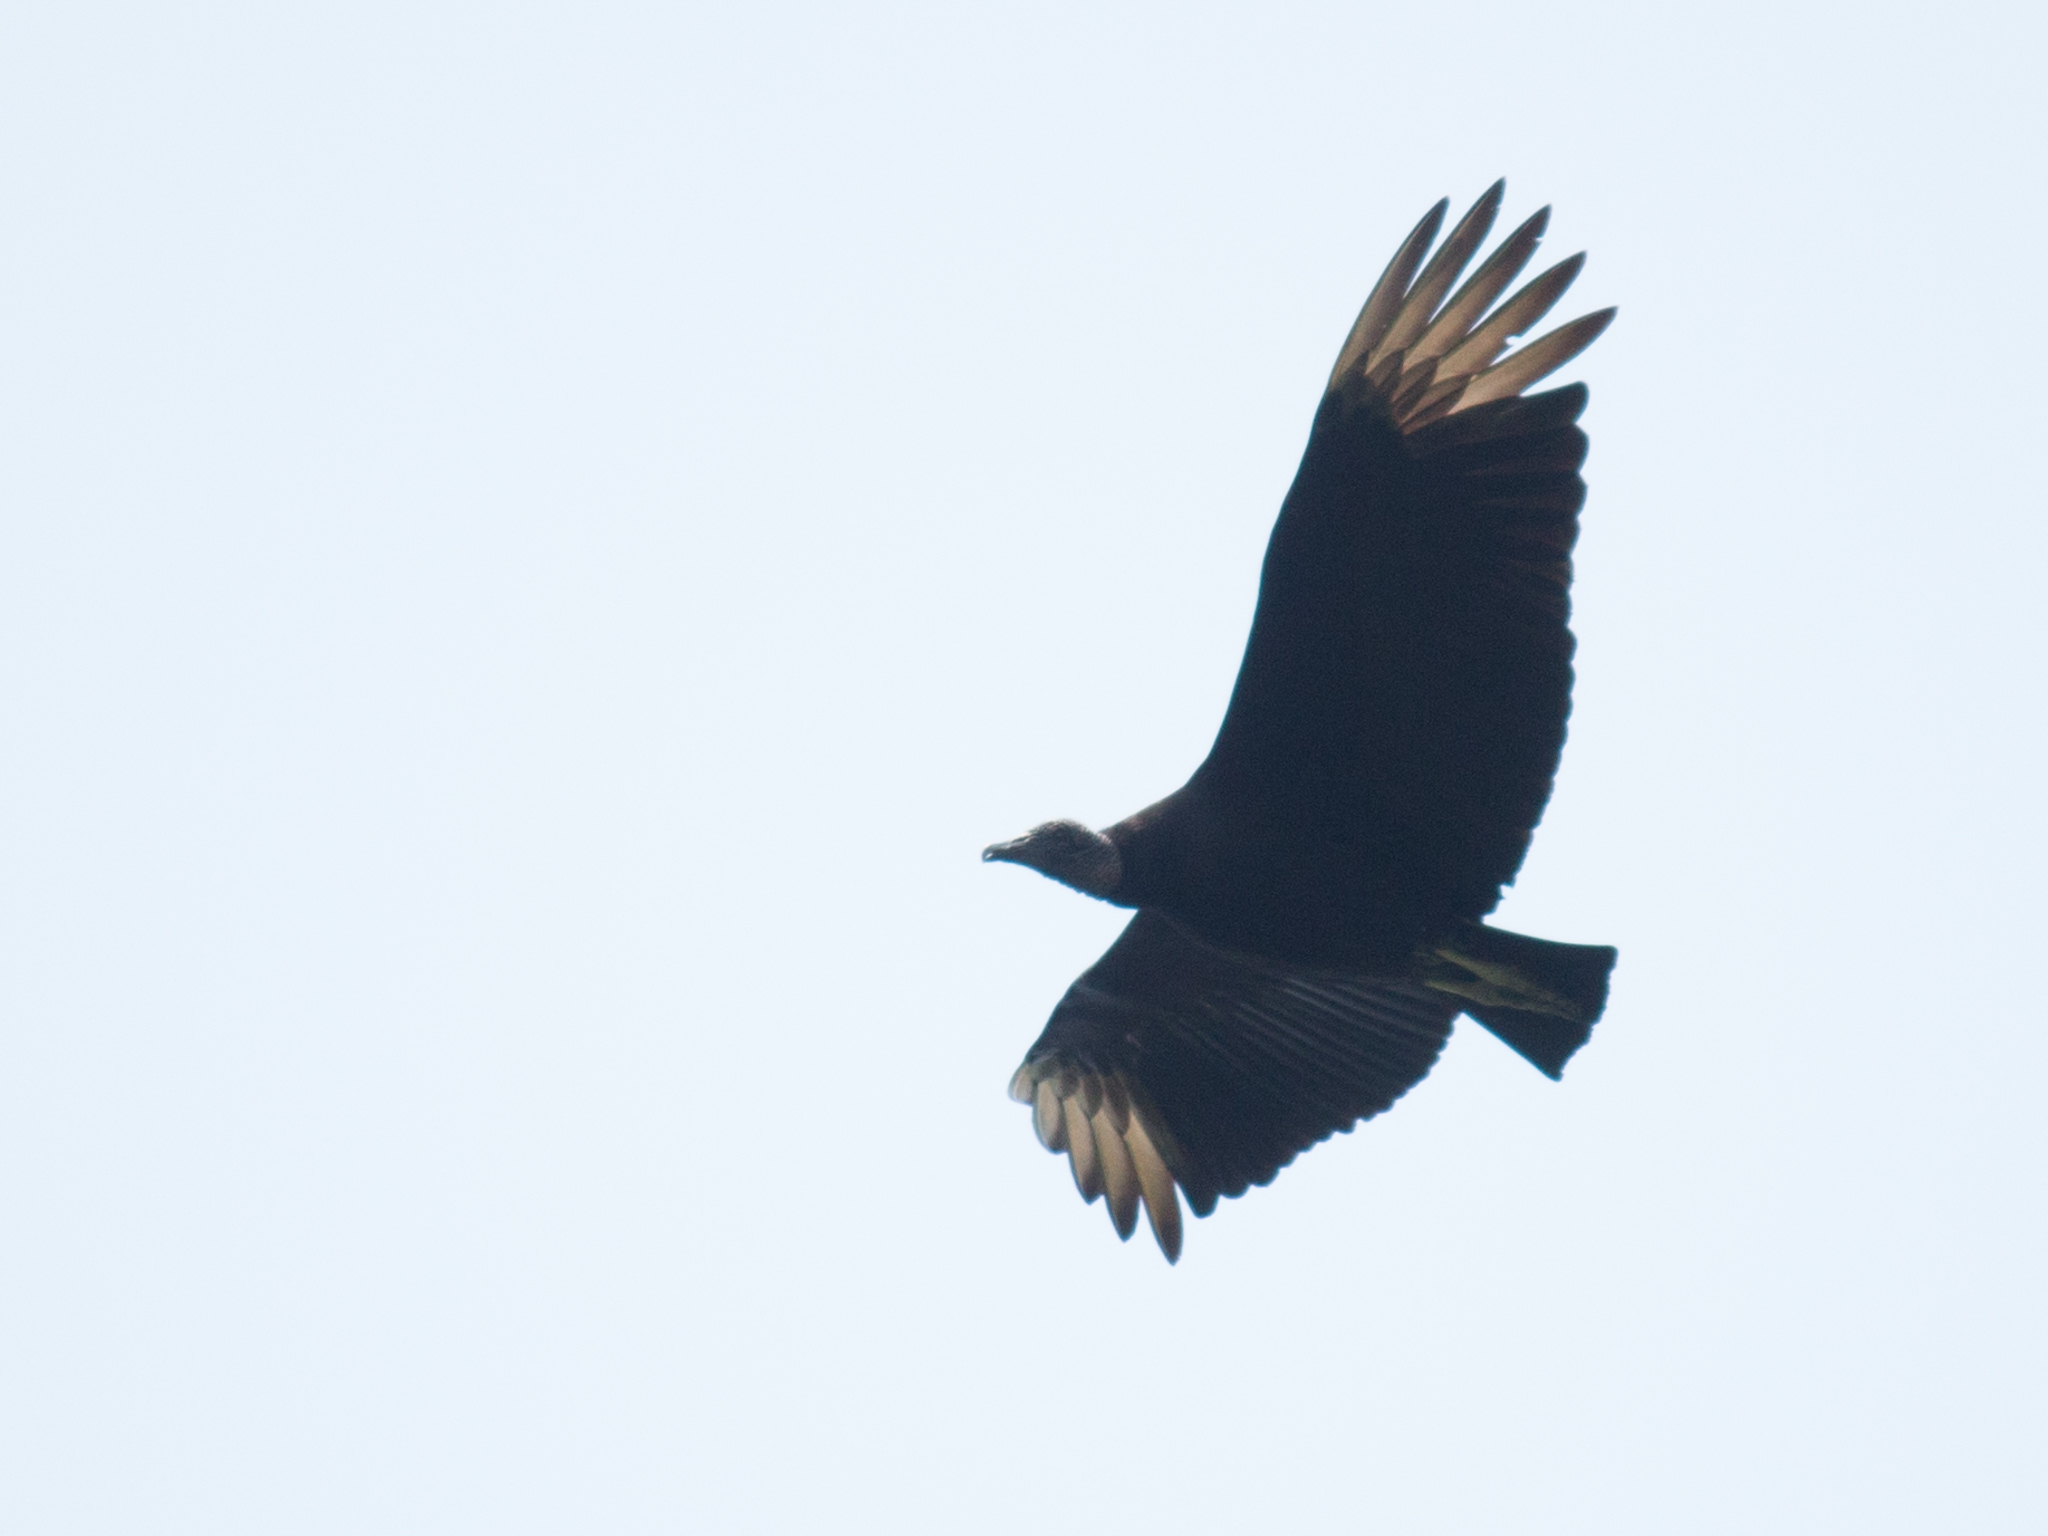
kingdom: Animalia
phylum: Chordata
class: Aves
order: Accipitriformes
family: Cathartidae
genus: Coragyps
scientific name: Coragyps atratus
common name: Black vulture
